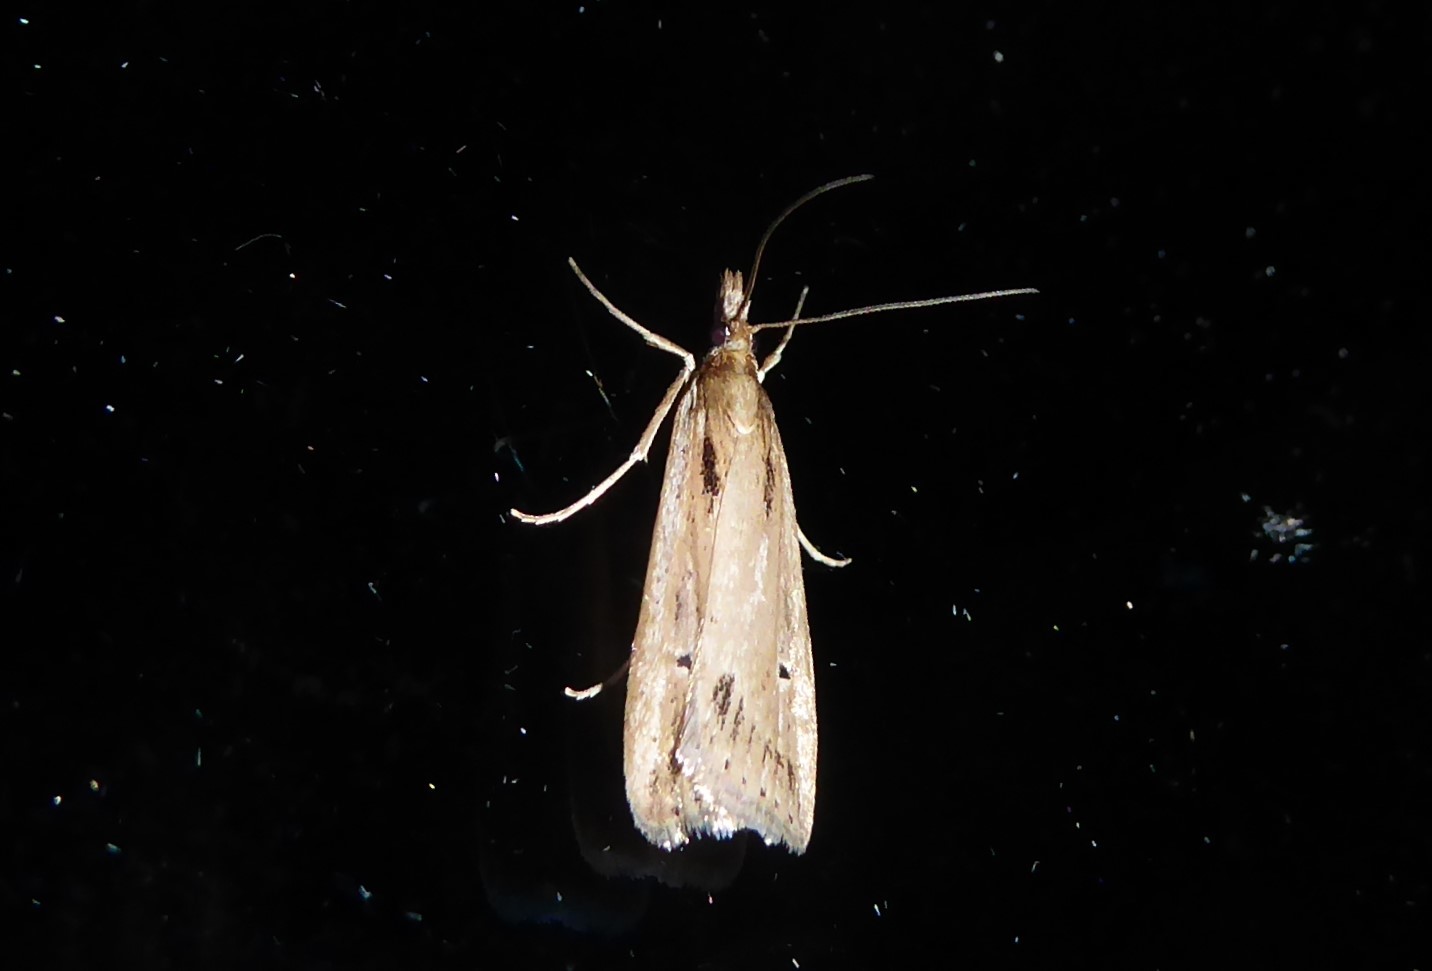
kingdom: Animalia
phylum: Arthropoda
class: Insecta
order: Lepidoptera
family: Crambidae
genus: Eudonia
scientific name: Eudonia sabulosella
